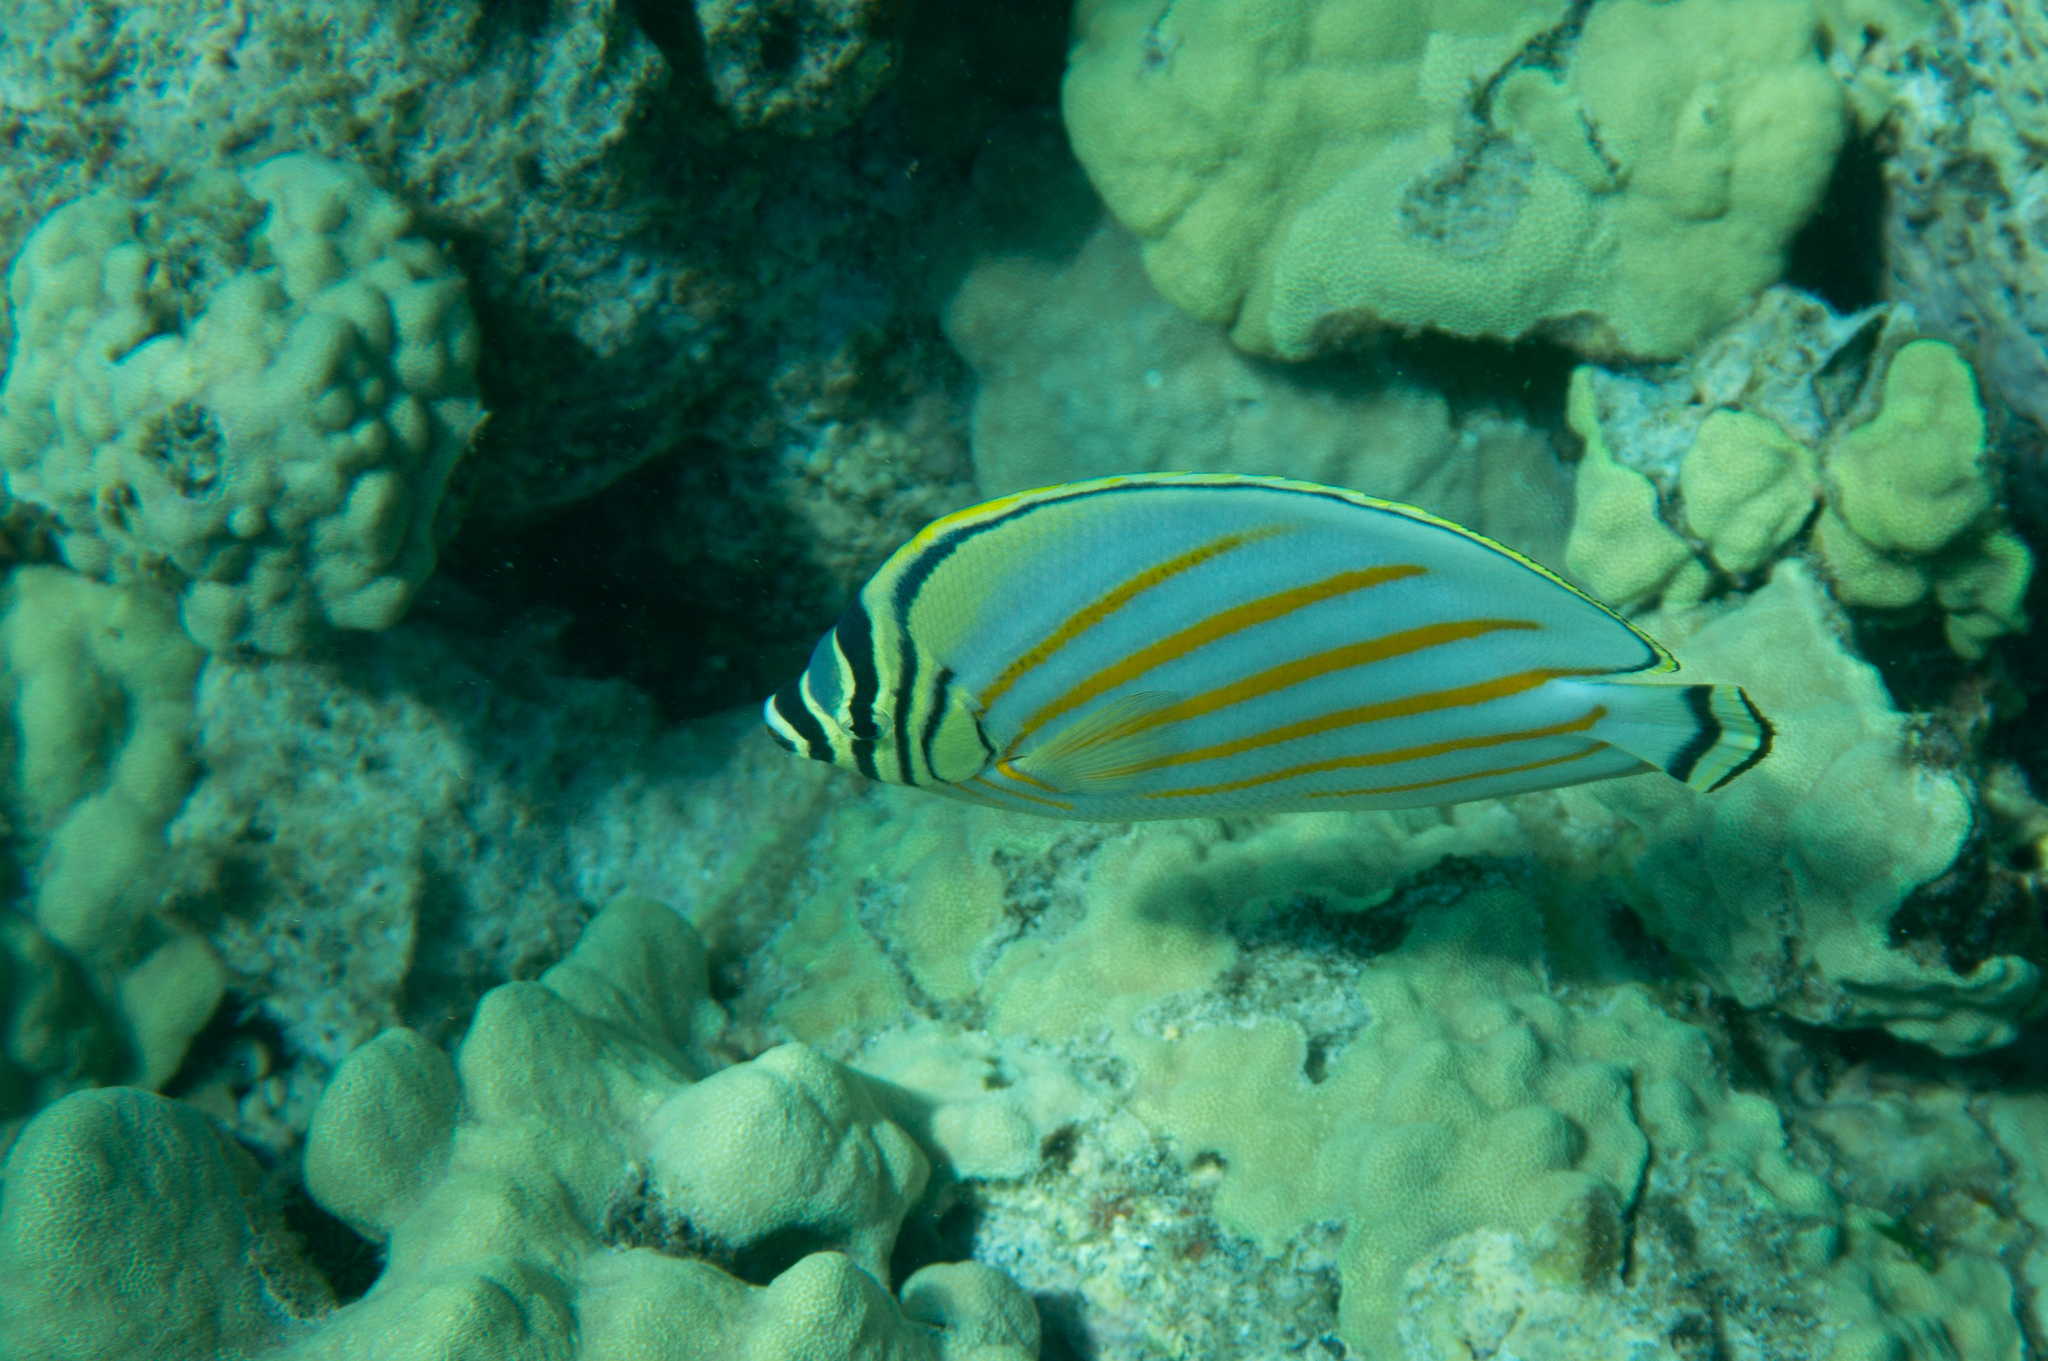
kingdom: Animalia
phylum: Chordata
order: Perciformes
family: Chaetodontidae
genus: Chaetodon
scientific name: Chaetodon ornatissimus
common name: Ornate butterflyfish
